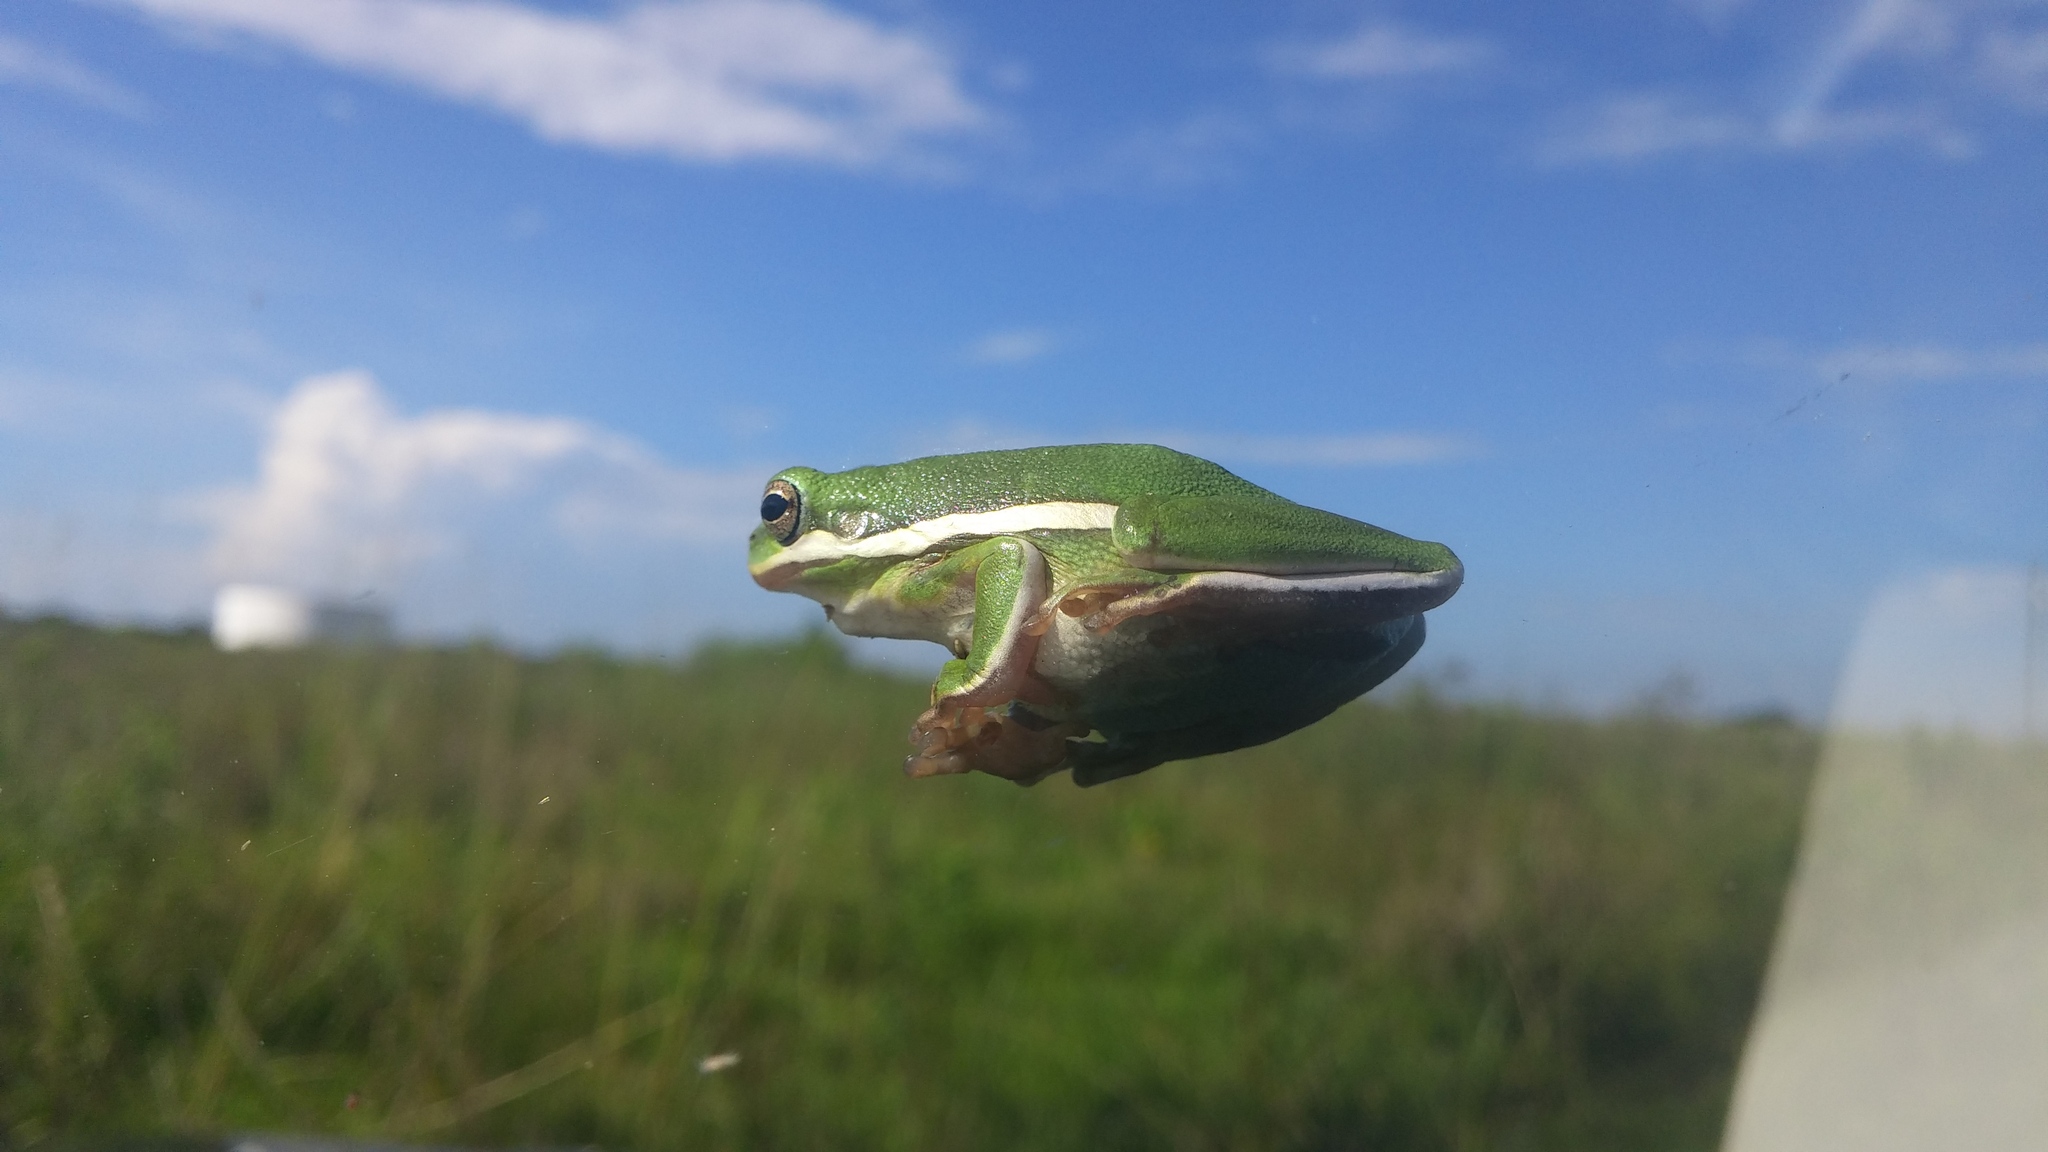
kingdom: Animalia
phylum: Chordata
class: Amphibia
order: Anura
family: Hylidae
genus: Dryophytes
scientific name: Dryophytes cinereus
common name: Green treefrog
